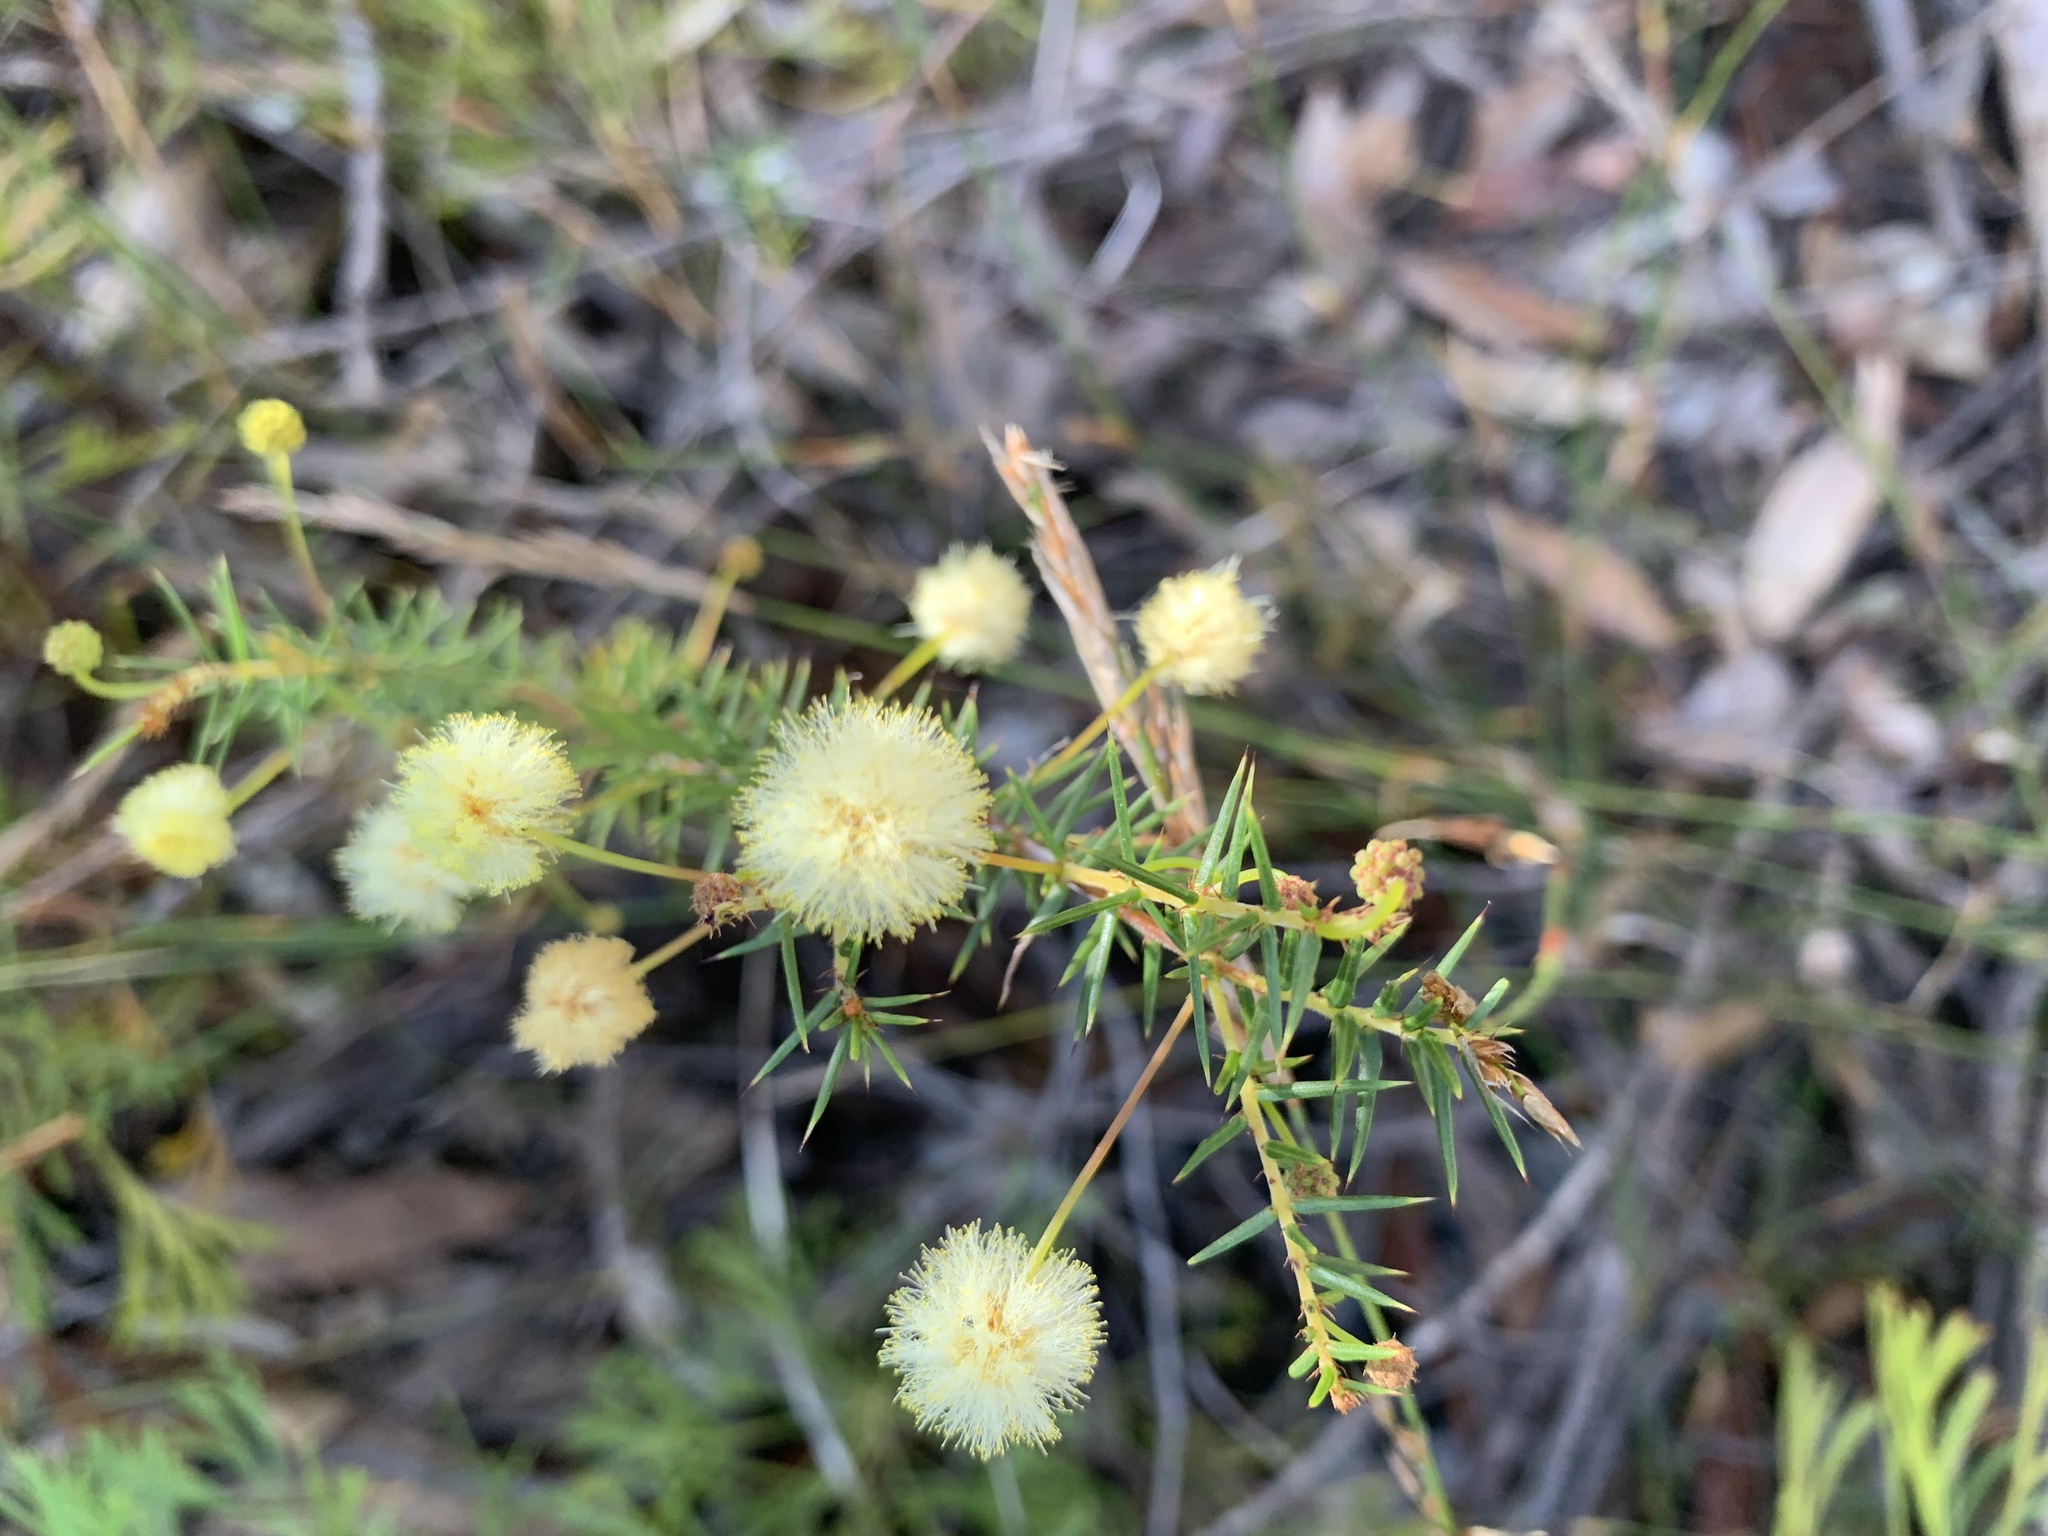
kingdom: Plantae
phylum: Tracheophyta
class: Magnoliopsida
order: Fabales
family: Fabaceae
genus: Acacia
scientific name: Acacia ulicifolia
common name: Juniper wattle
